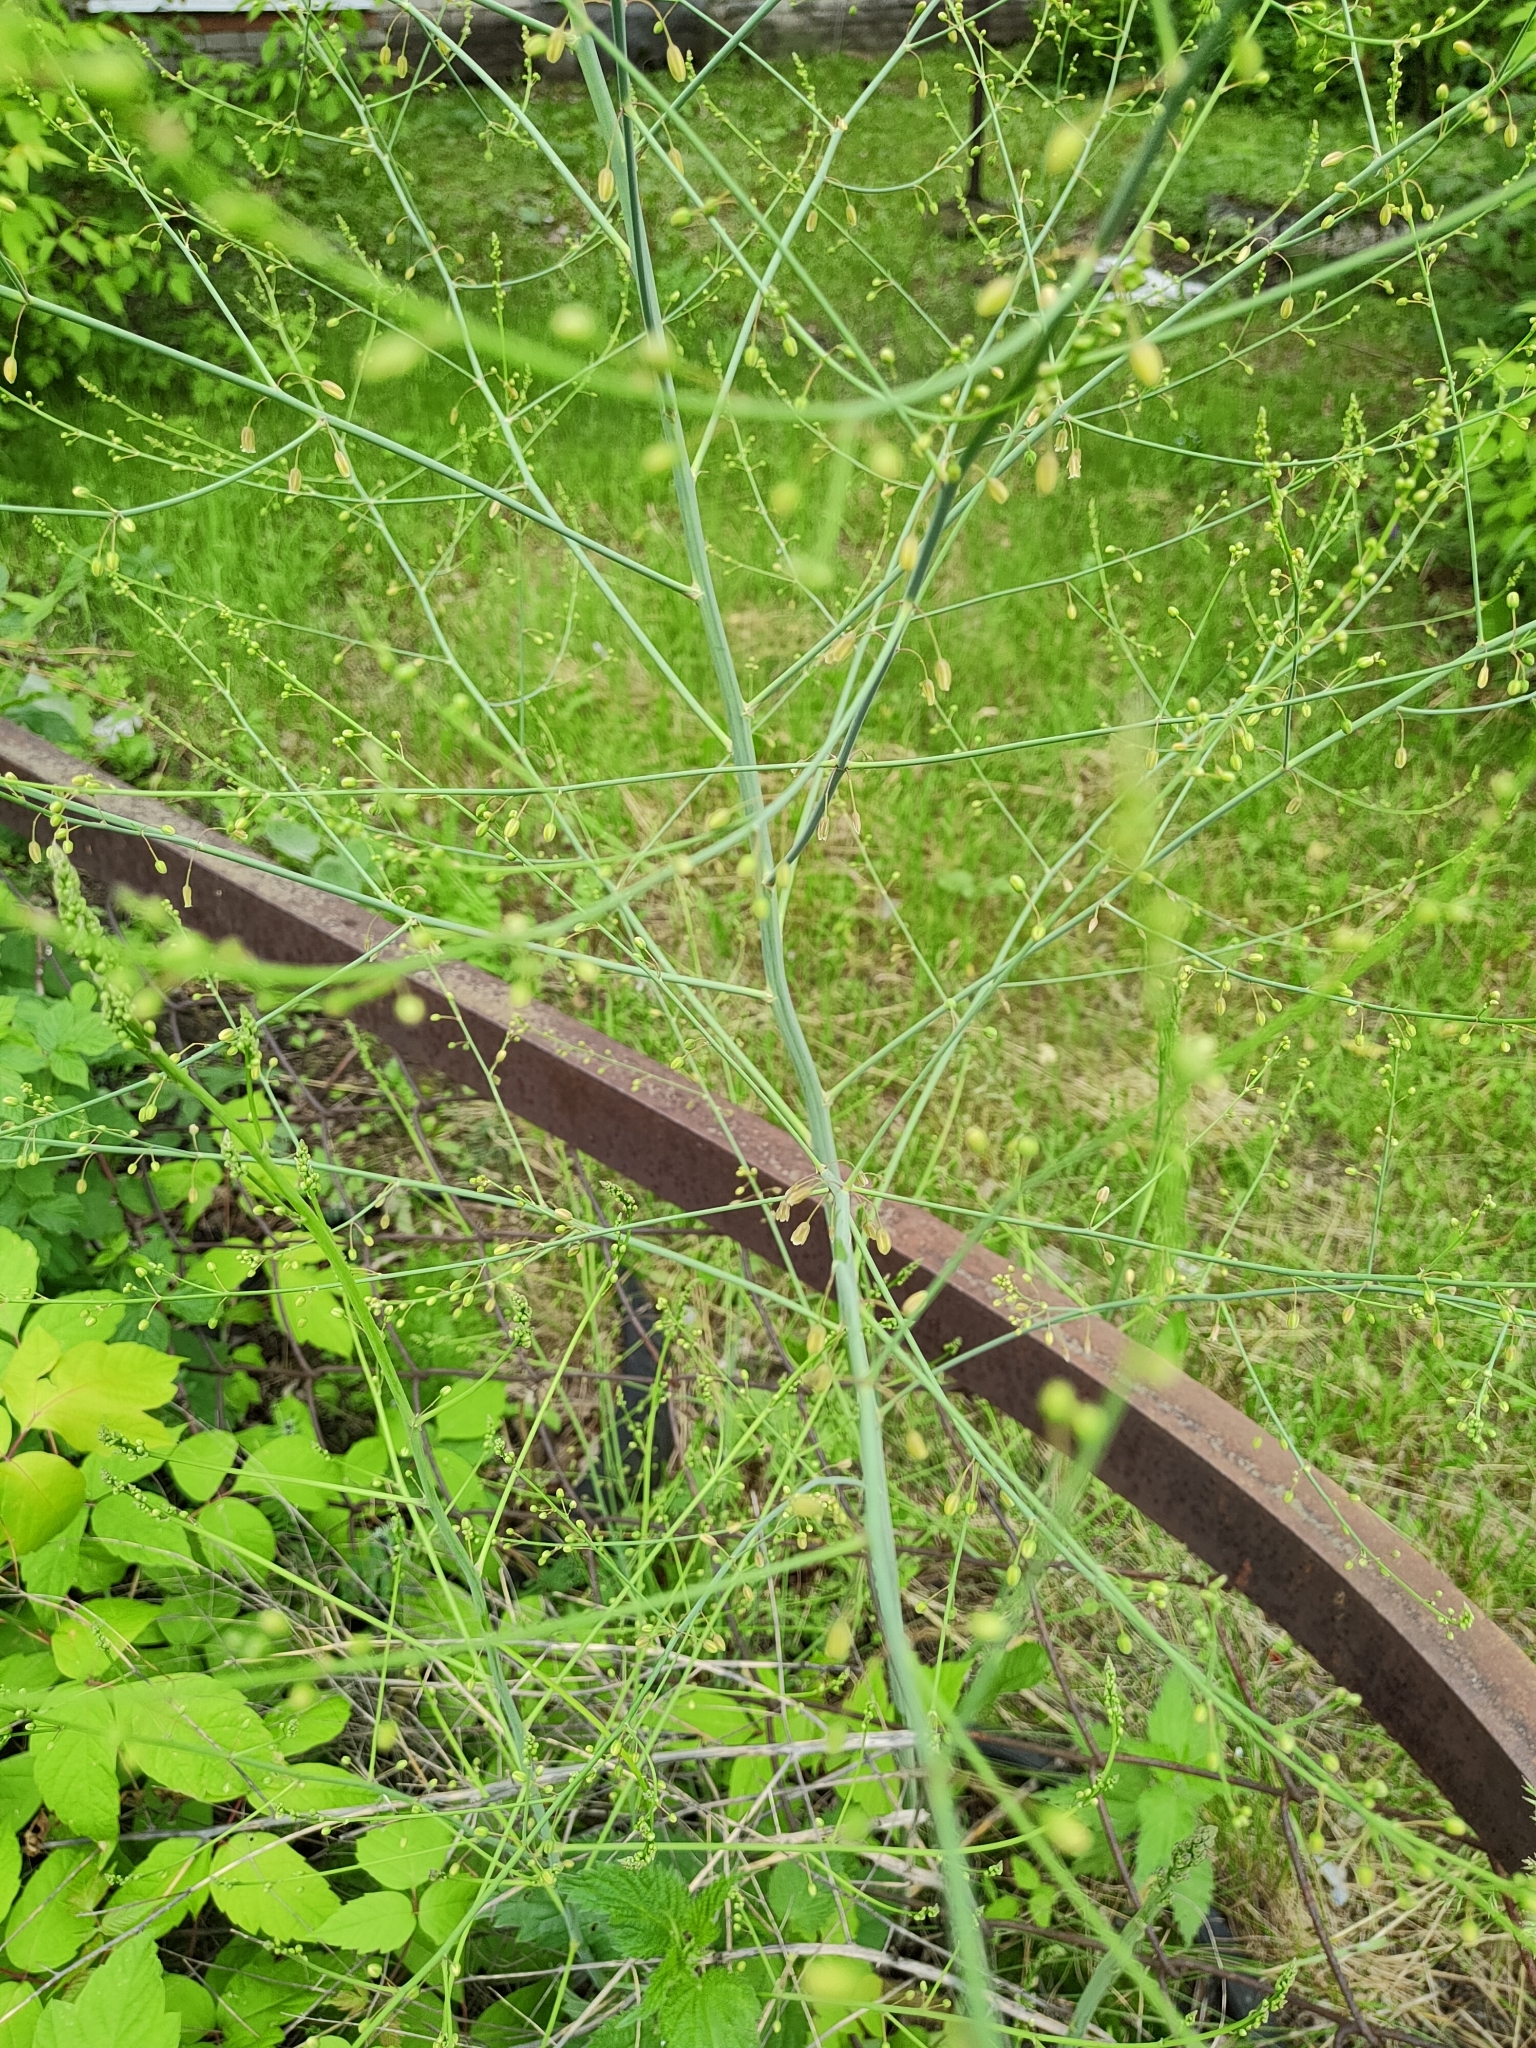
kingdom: Plantae
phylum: Tracheophyta
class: Liliopsida
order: Asparagales
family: Asparagaceae
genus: Asparagus
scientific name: Asparagus officinalis
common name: Garden asparagus
